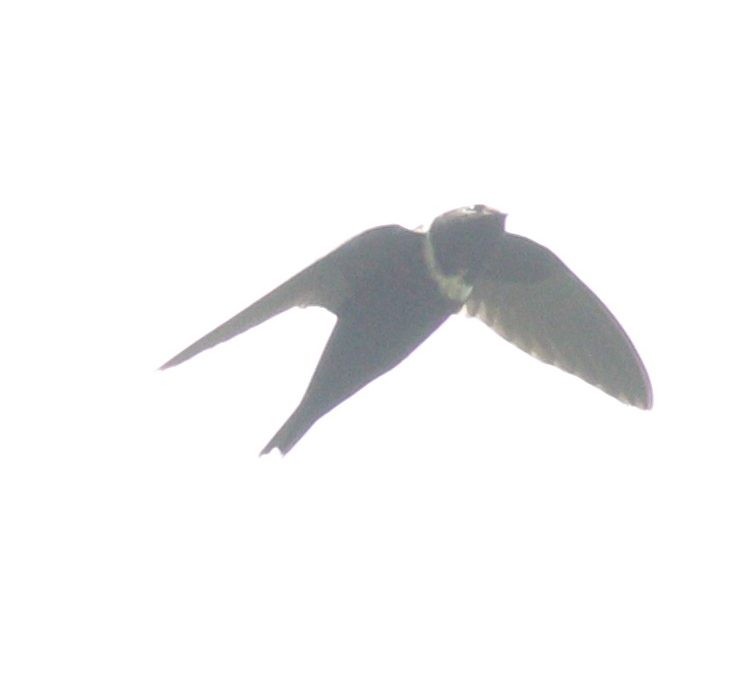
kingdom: Animalia
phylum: Chordata
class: Aves
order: Apodiformes
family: Apodidae
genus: Streptoprocne
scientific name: Streptoprocne zonaris
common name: White-collared swift
